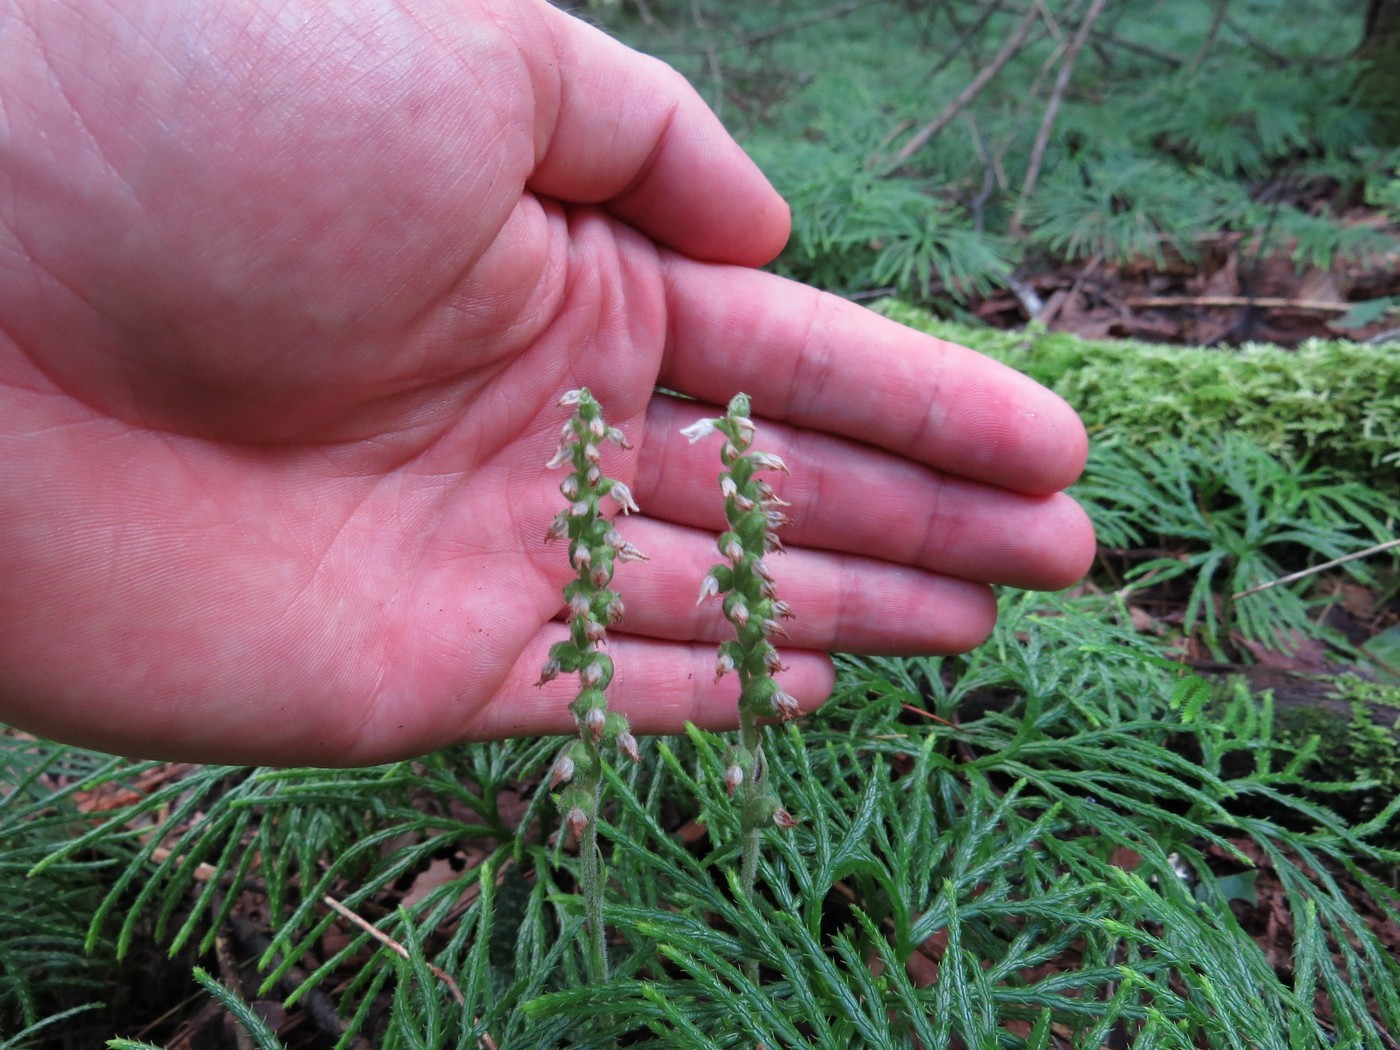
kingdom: Plantae
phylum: Tracheophyta
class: Liliopsida
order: Asparagales
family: Orchidaceae
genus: Goodyera
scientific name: Goodyera repens
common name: Creeping lady's-tresses
